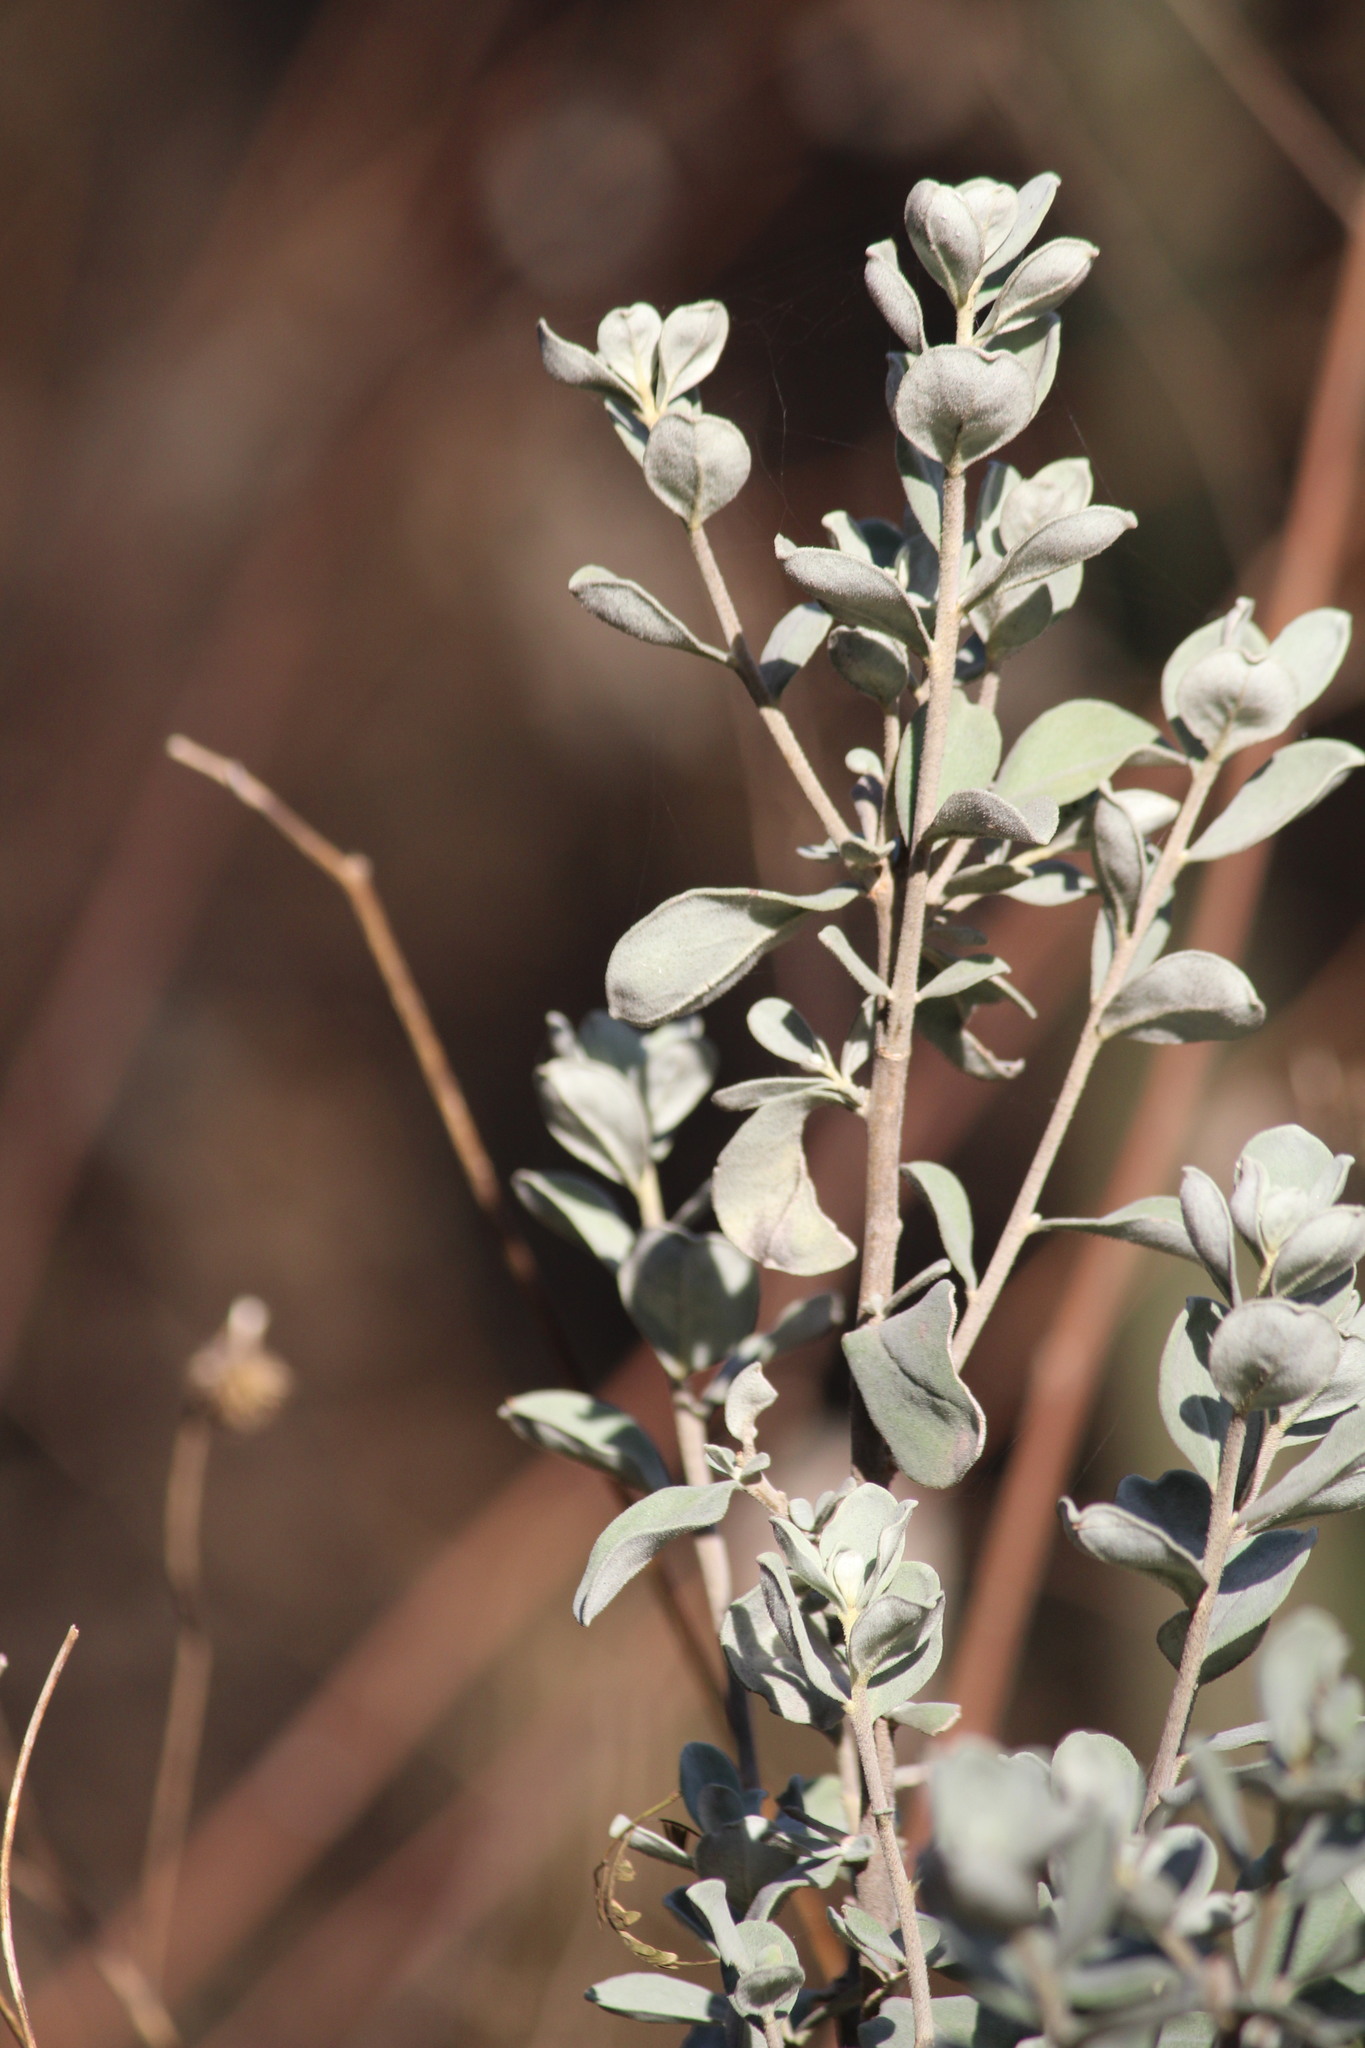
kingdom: Plantae
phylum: Tracheophyta
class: Magnoliopsida
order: Caryophyllales
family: Amaranthaceae
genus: Atriplex
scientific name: Atriplex canescens
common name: Four-wing saltbush
